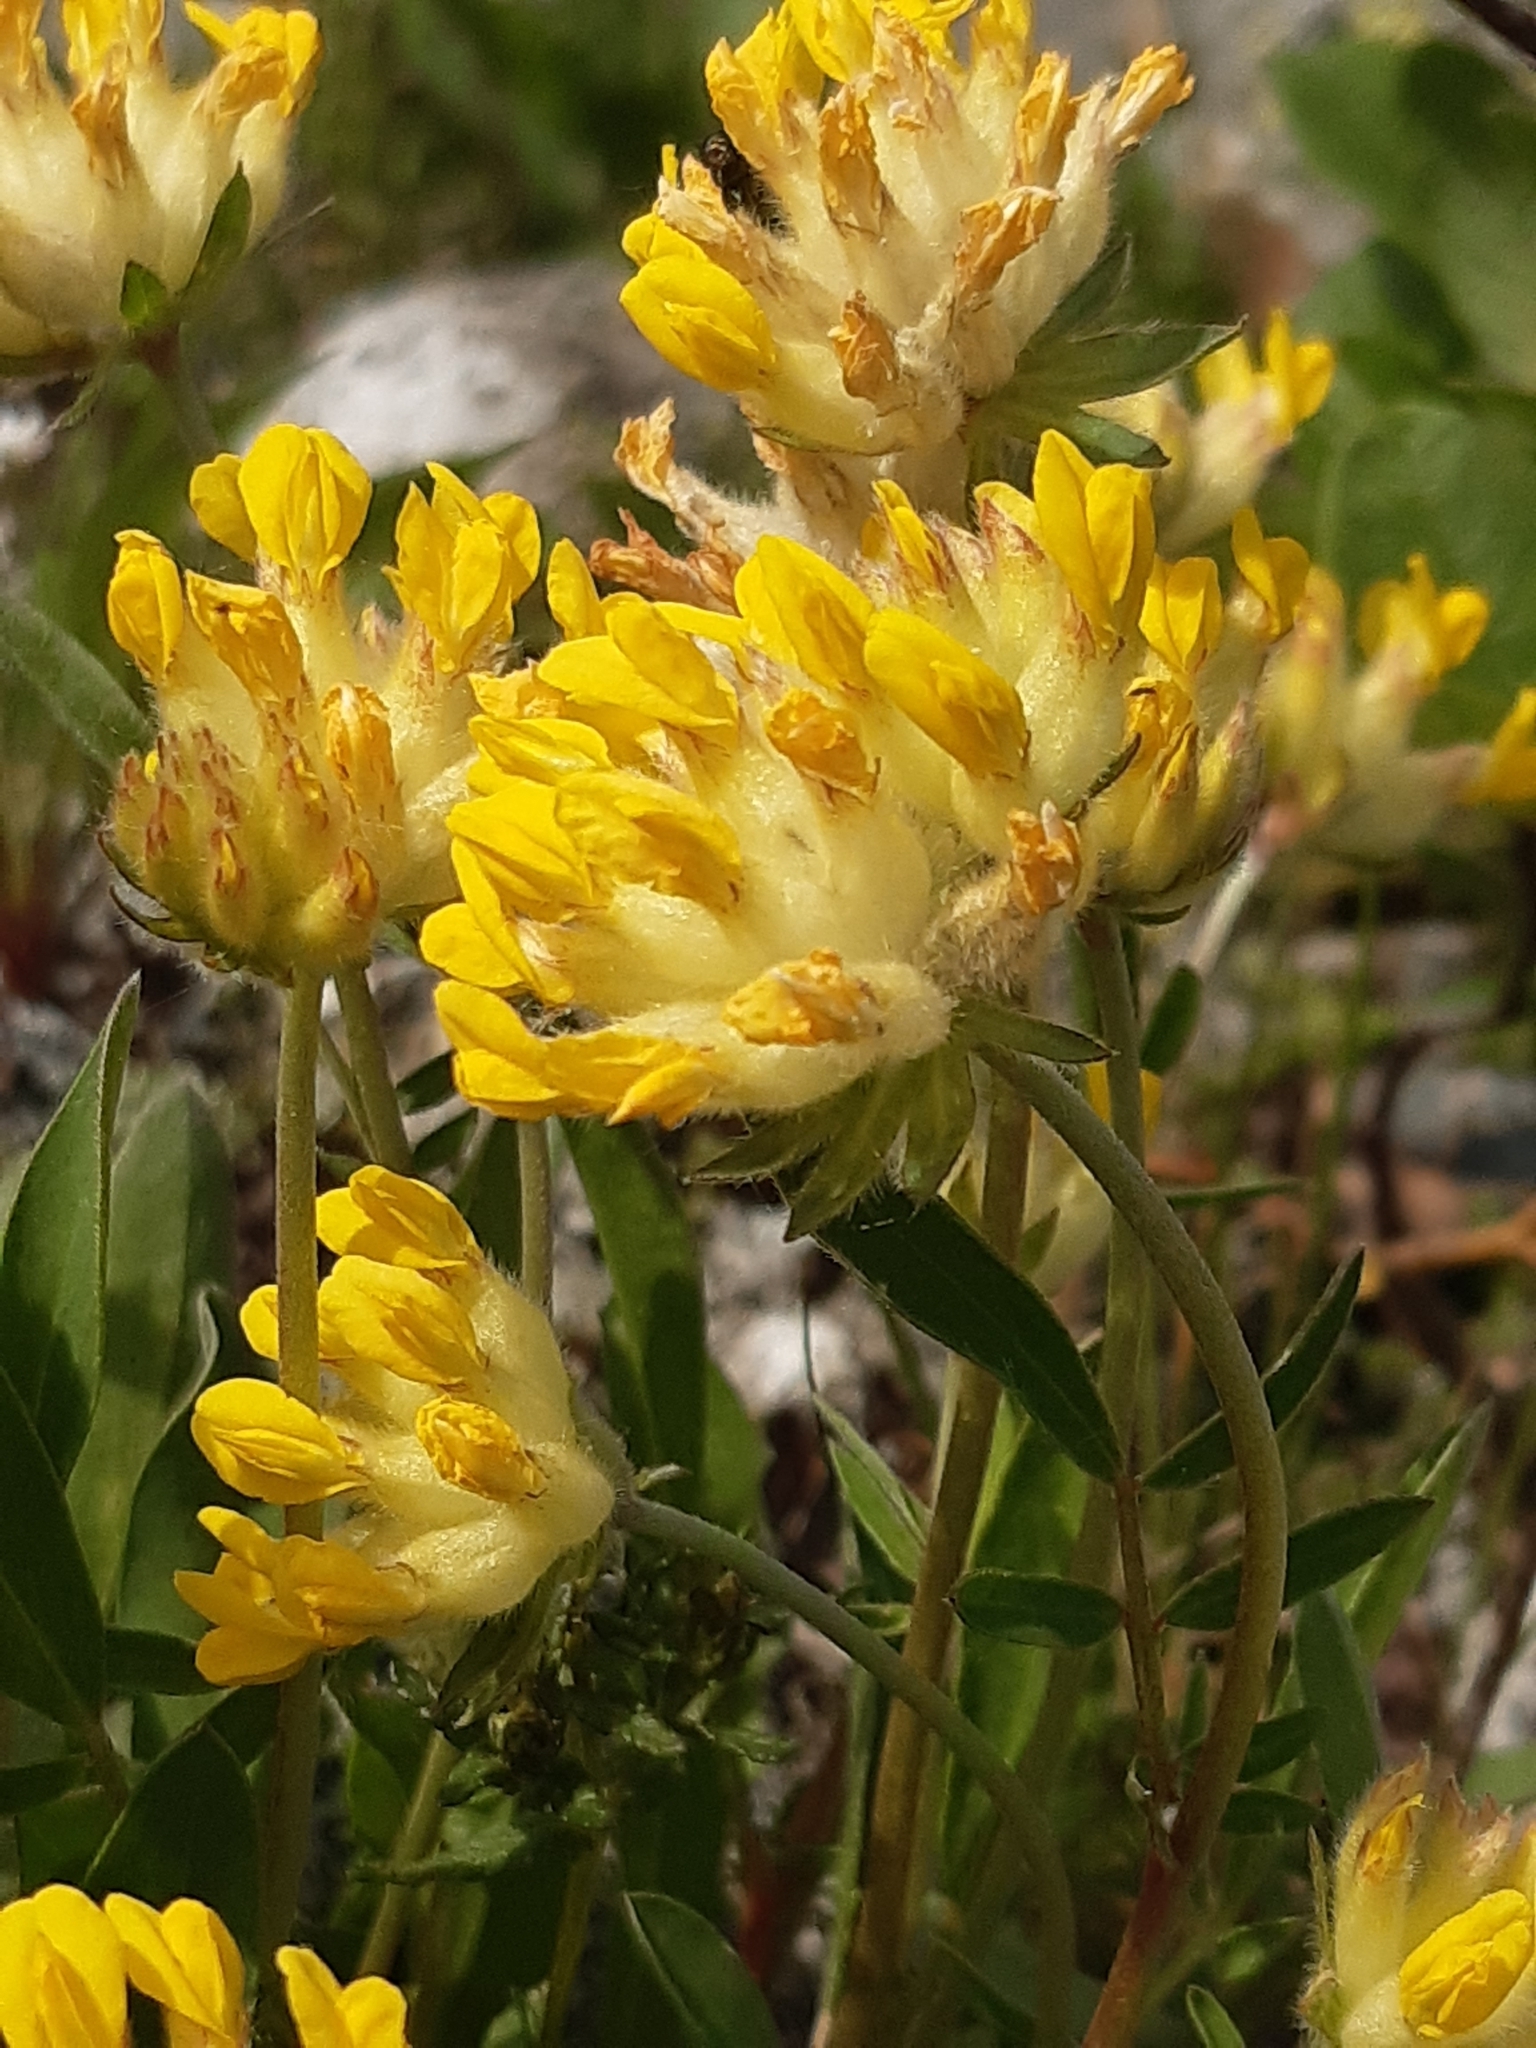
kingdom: Plantae
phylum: Tracheophyta
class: Magnoliopsida
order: Fabales
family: Fabaceae
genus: Anthyllis
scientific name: Anthyllis vulneraria
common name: Kidney vetch
